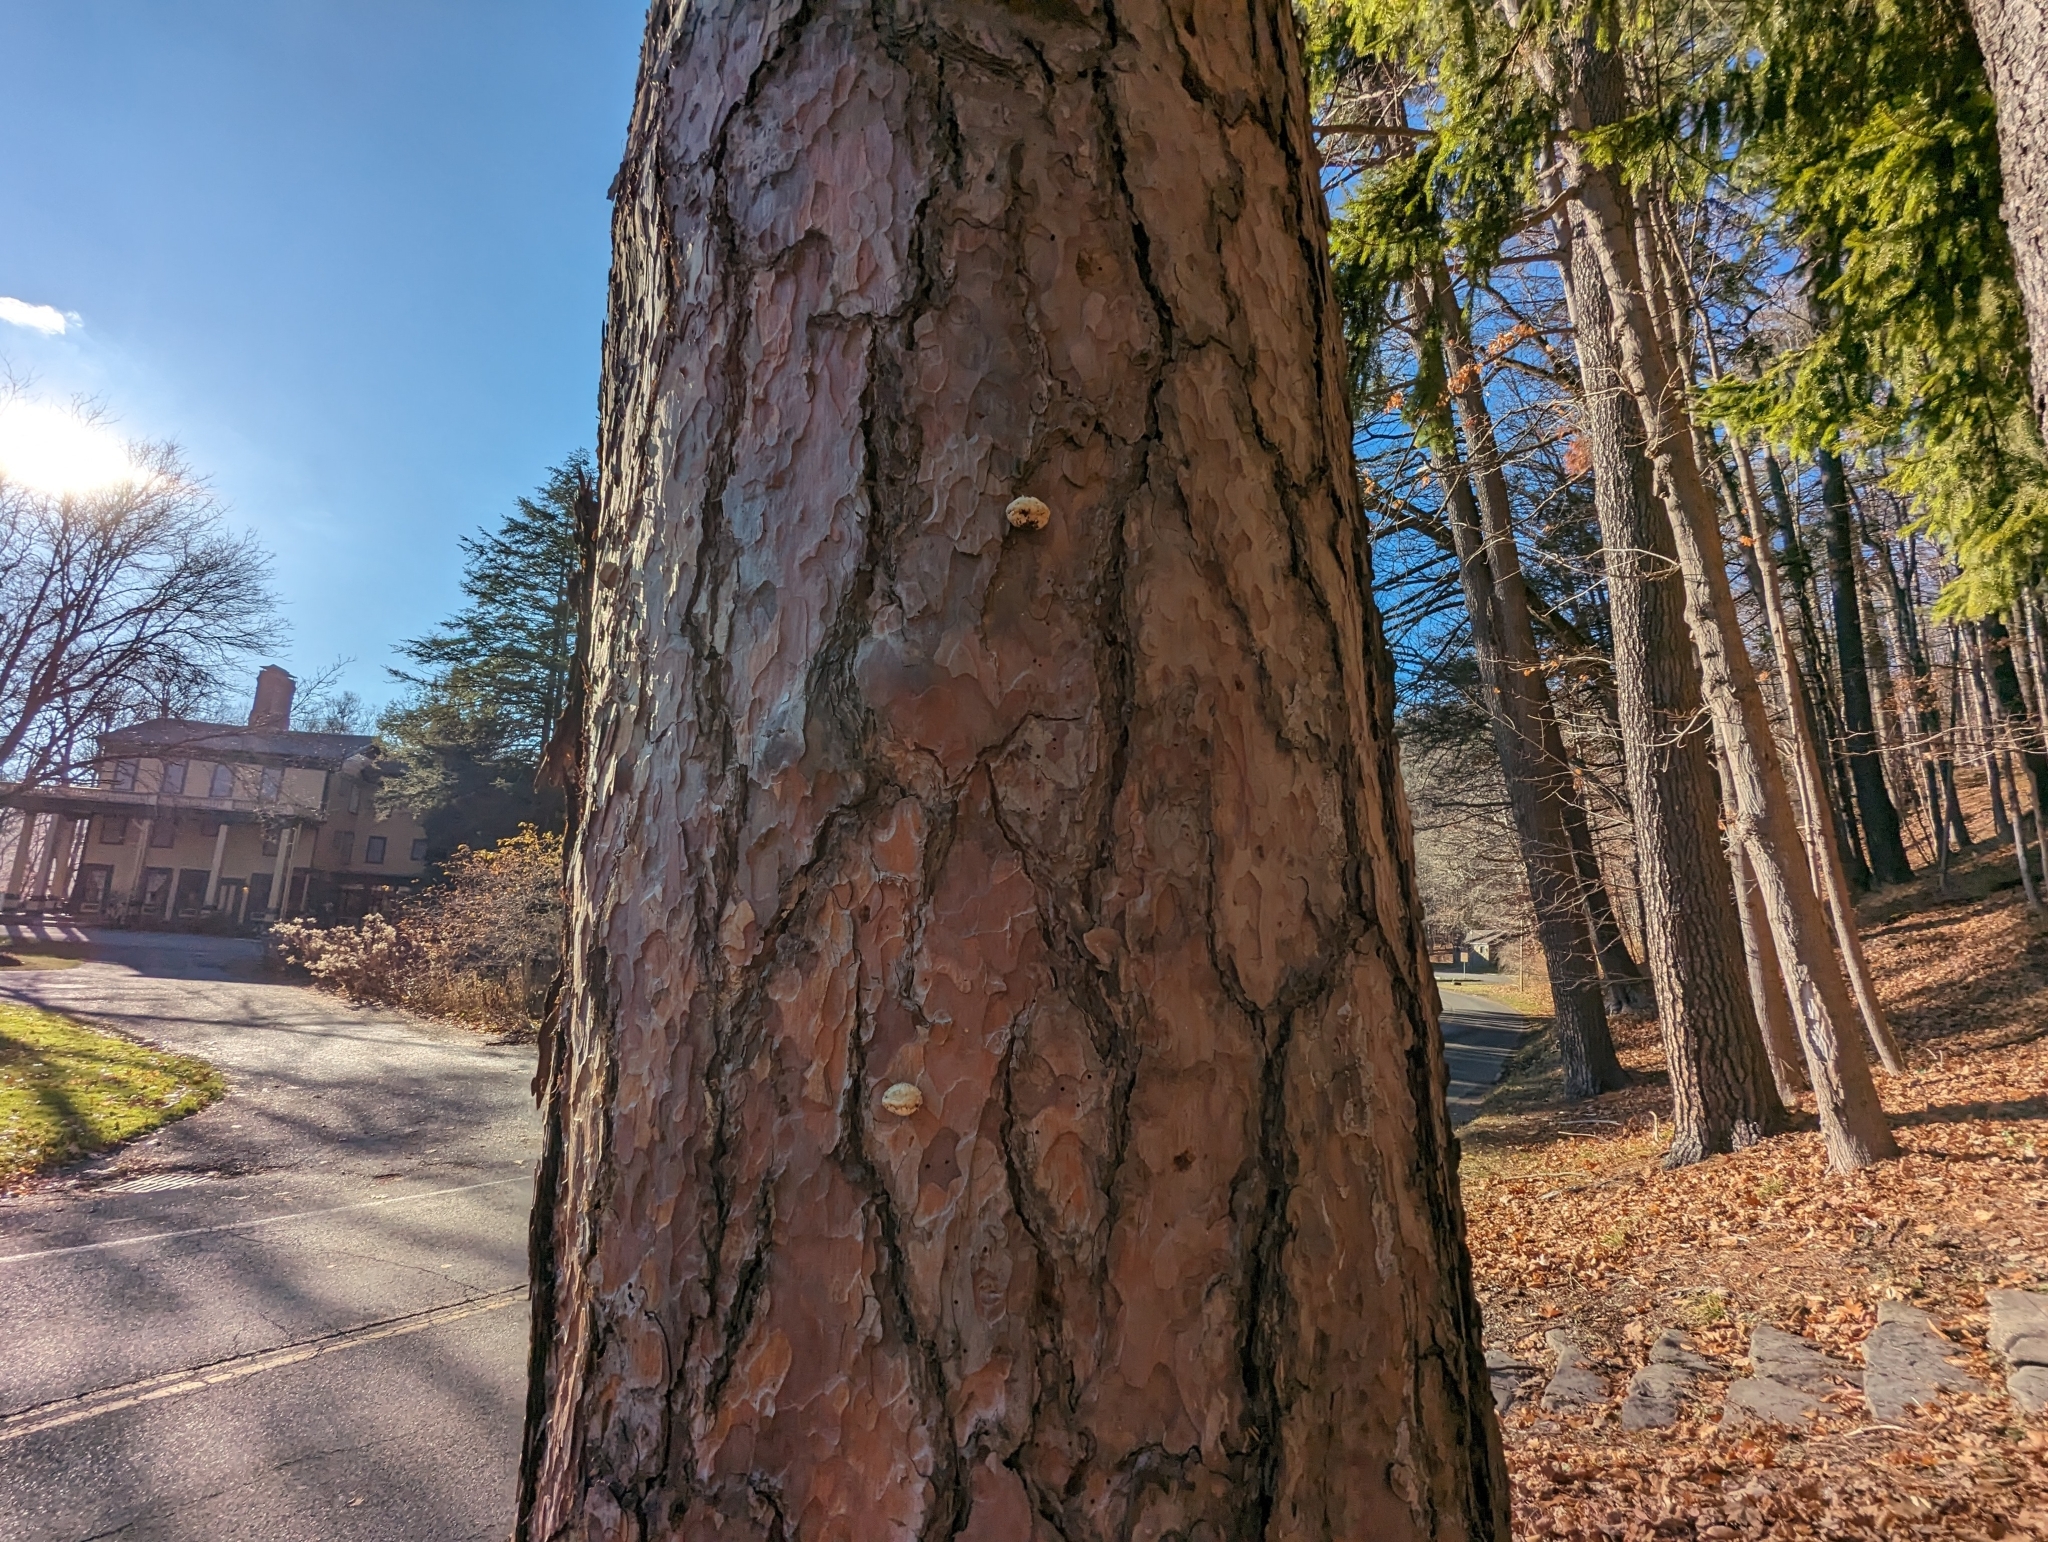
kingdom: Fungi
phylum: Basidiomycota
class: Agaricomycetes
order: Polyporales
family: Polyporaceae
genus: Cryptoporus
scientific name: Cryptoporus volvatus
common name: Veiled polypore
